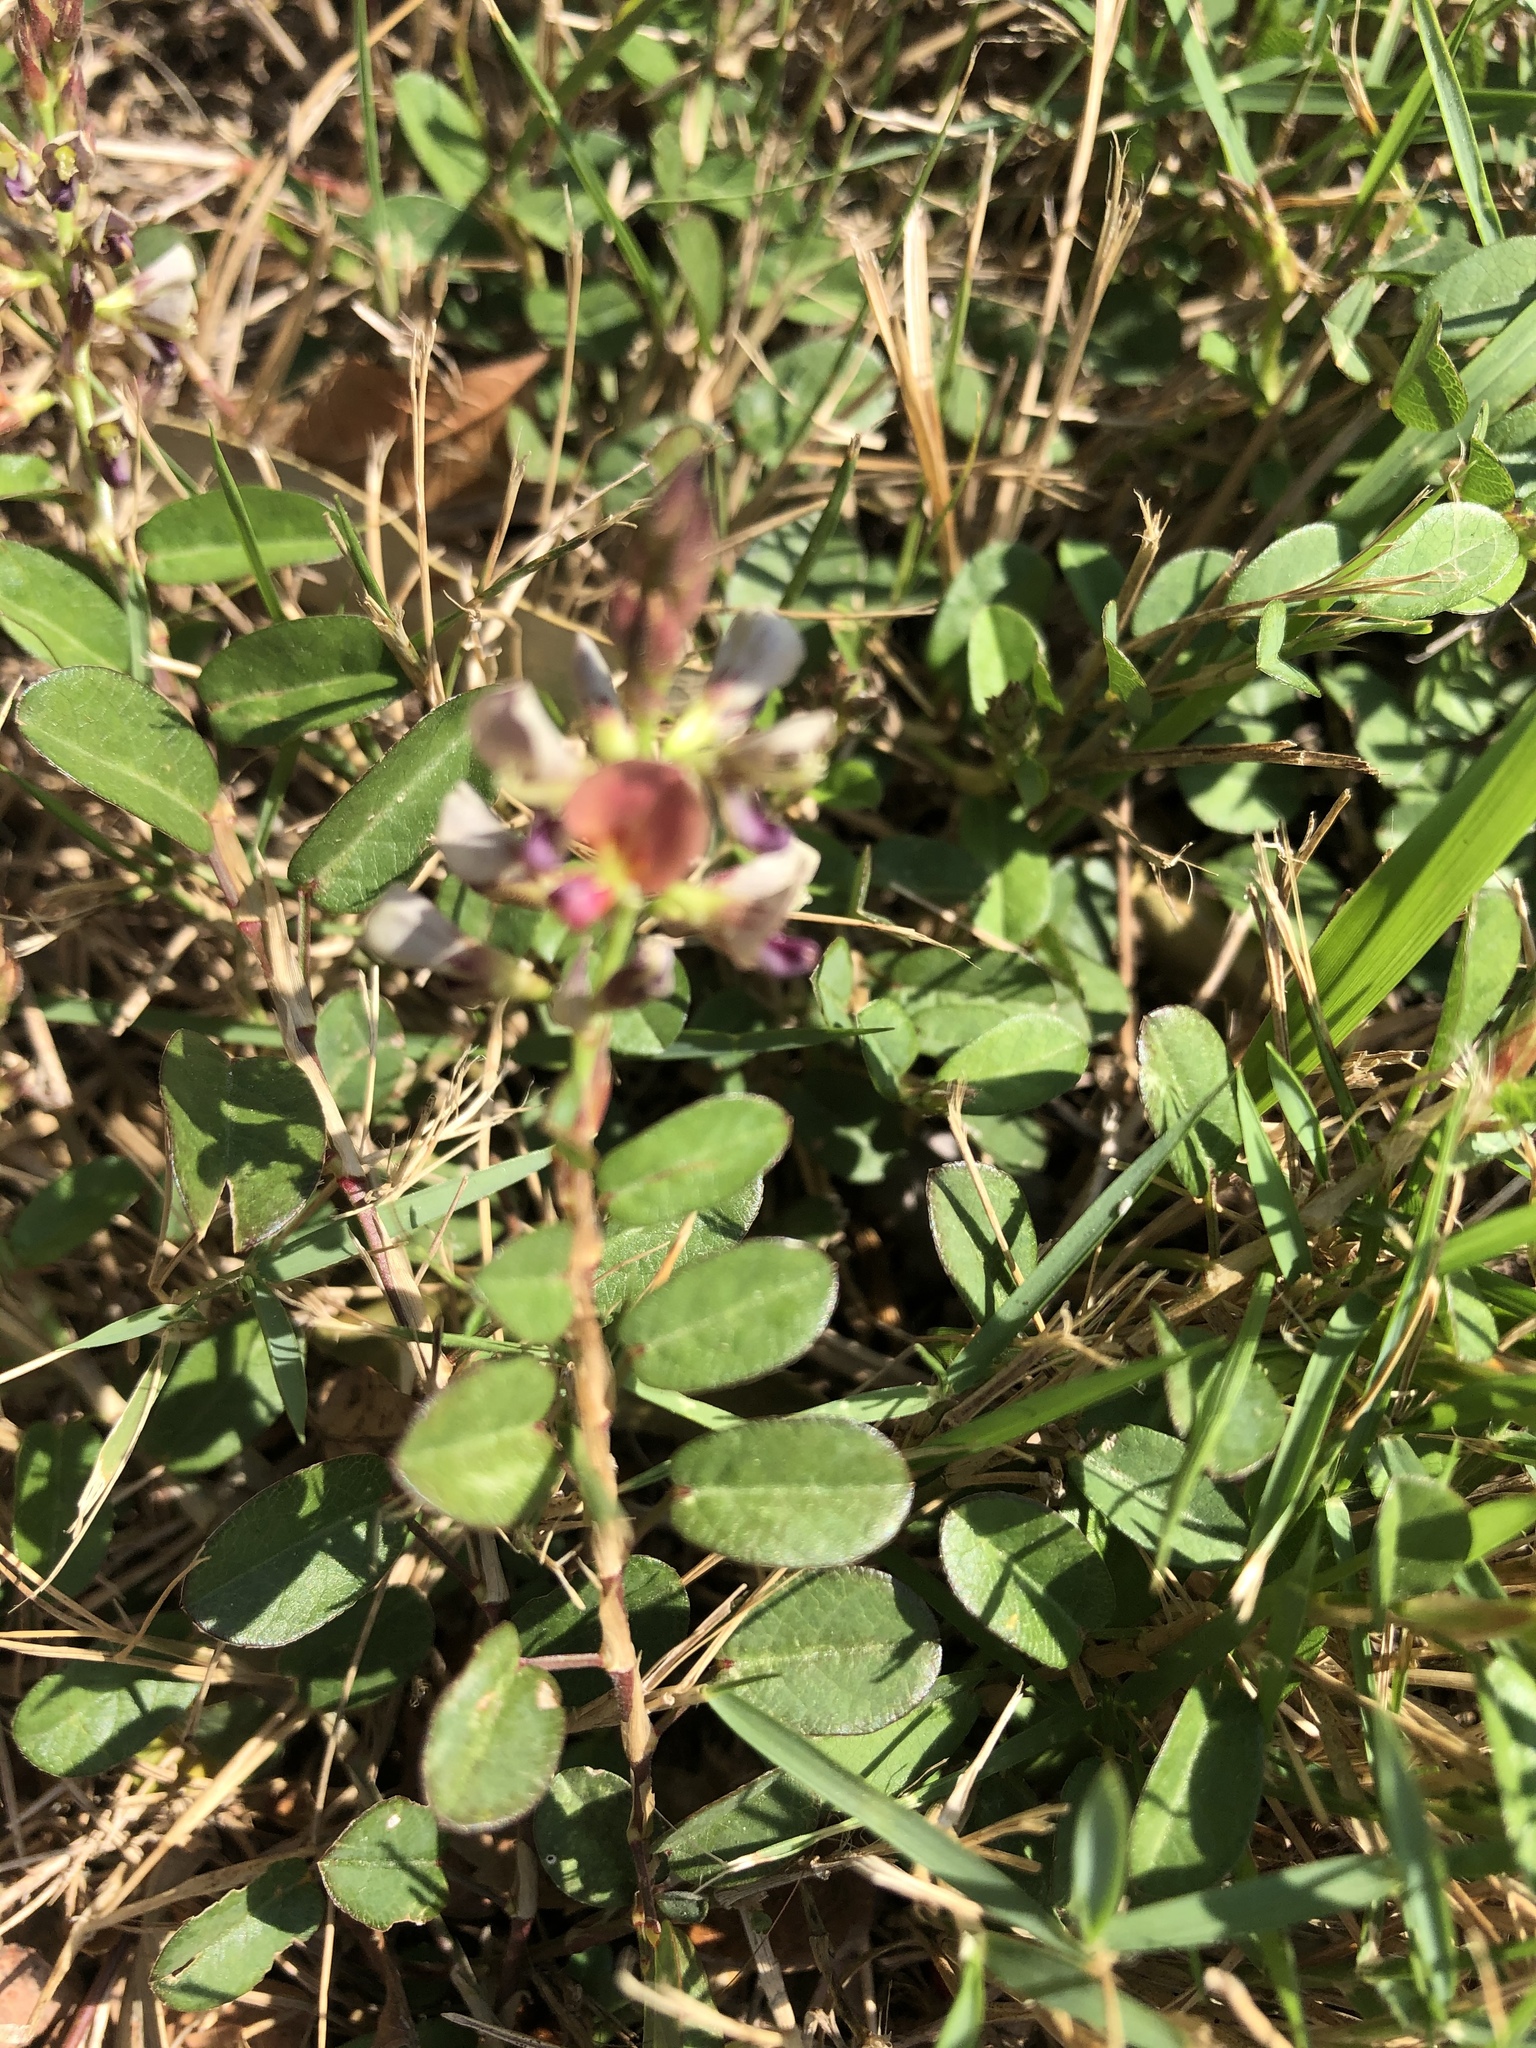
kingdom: Plantae
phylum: Tracheophyta
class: Magnoliopsida
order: Fabales
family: Fabaceae
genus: Alysicarpus
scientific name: Alysicarpus vaginalis
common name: White moneywort
